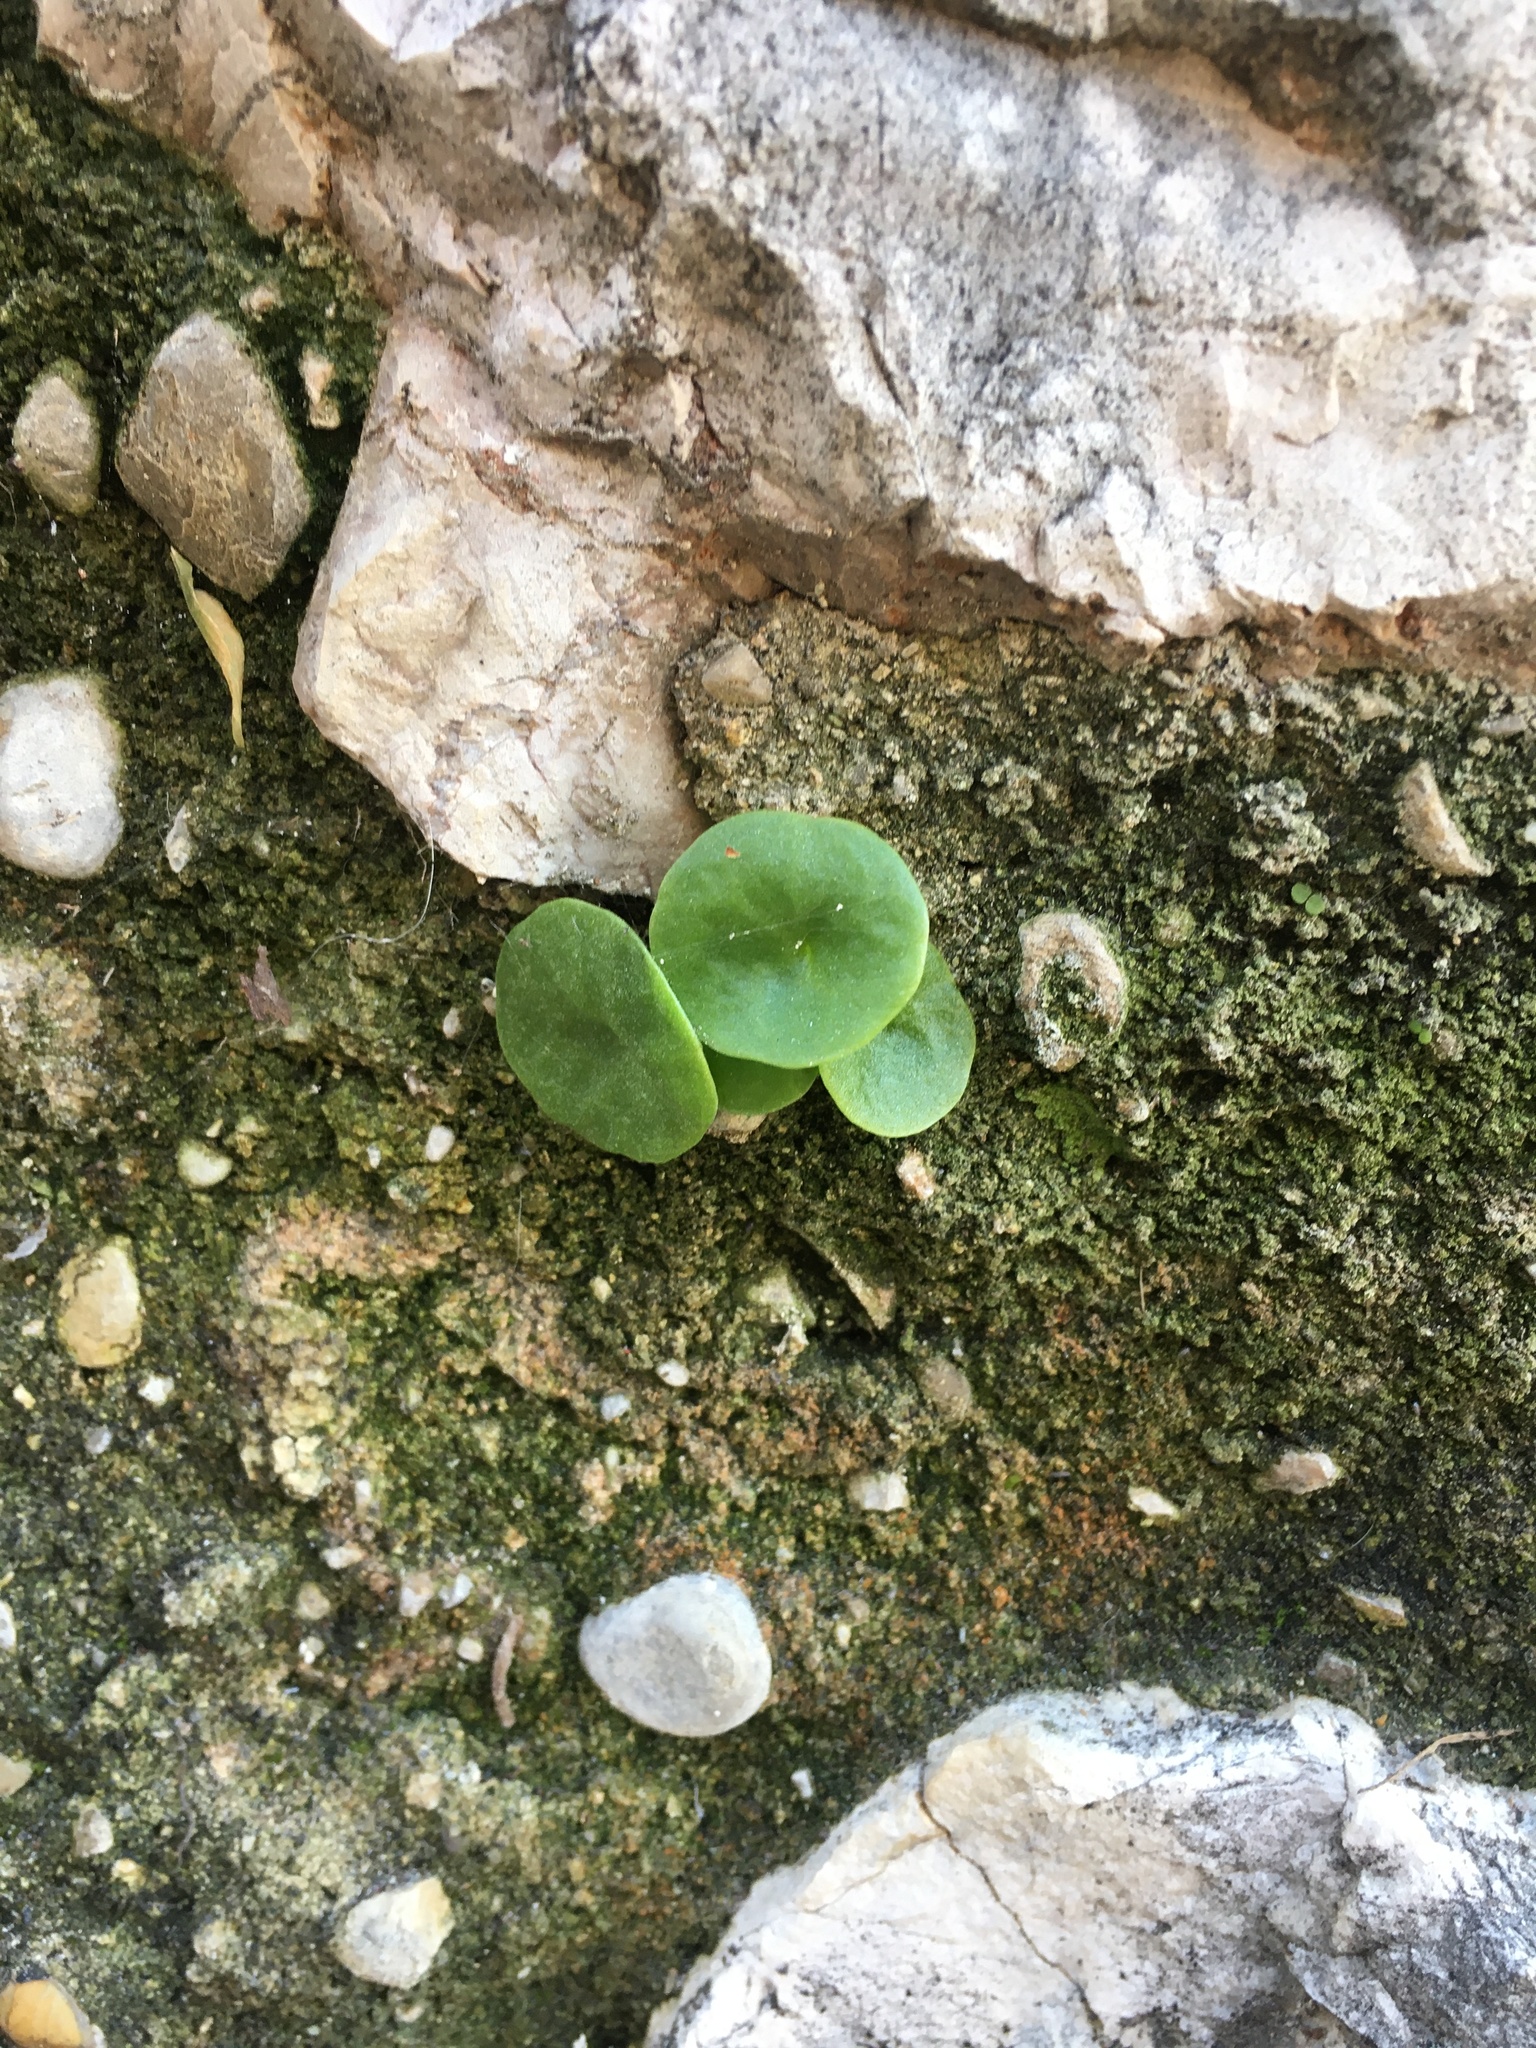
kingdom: Plantae
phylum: Tracheophyta
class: Magnoliopsida
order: Saxifragales
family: Crassulaceae
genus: Umbilicus
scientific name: Umbilicus rupestris
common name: Navelwort
